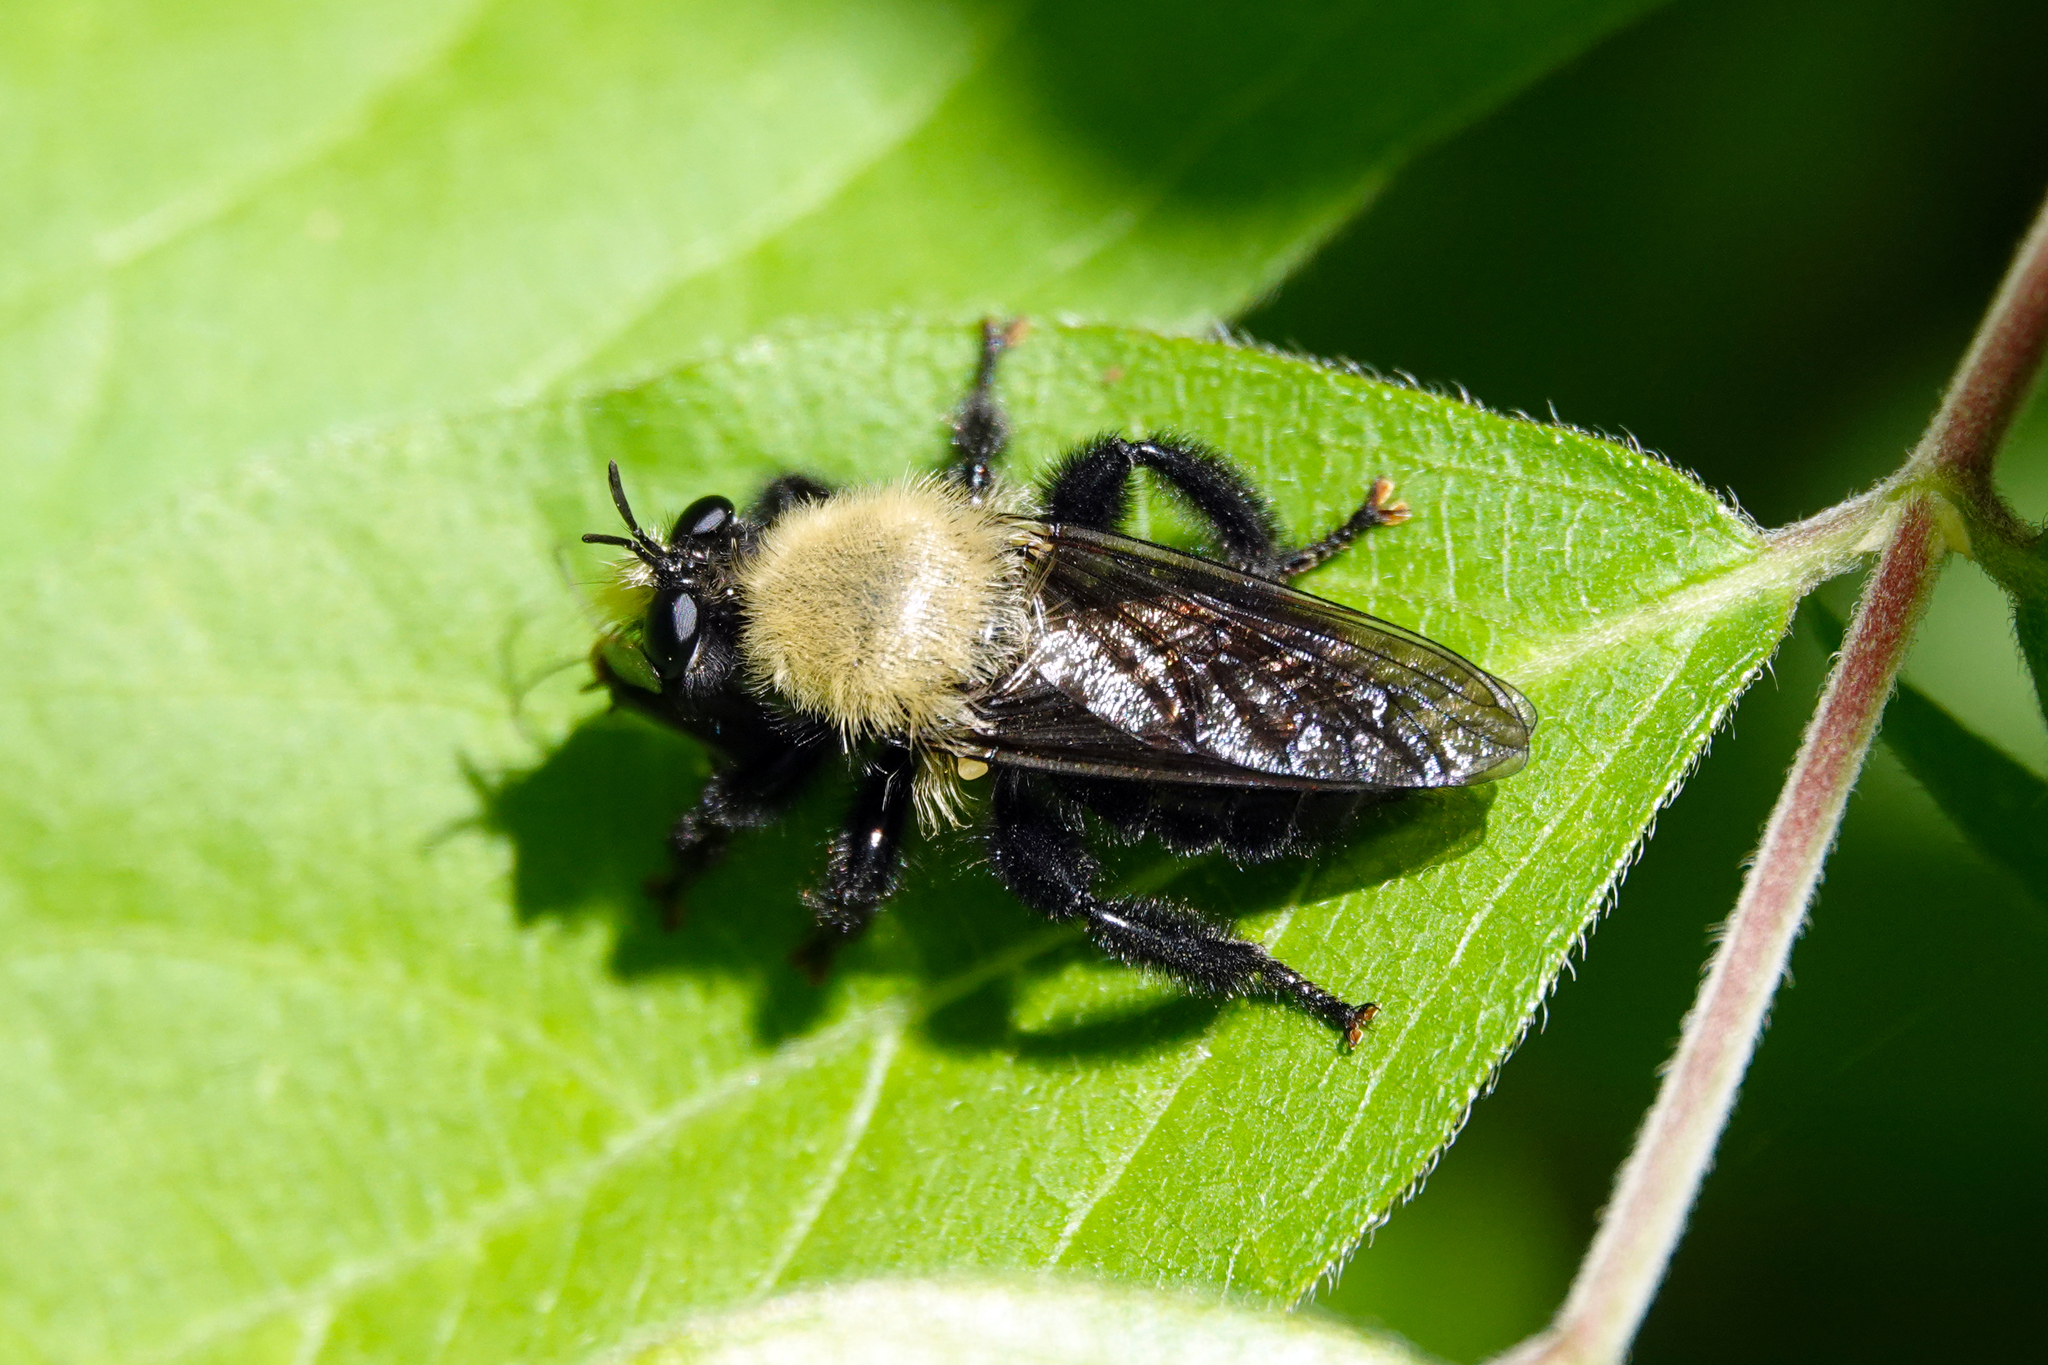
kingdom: Animalia
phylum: Arthropoda
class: Insecta
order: Diptera
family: Asilidae
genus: Laphria
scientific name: Laphria flavicollis
